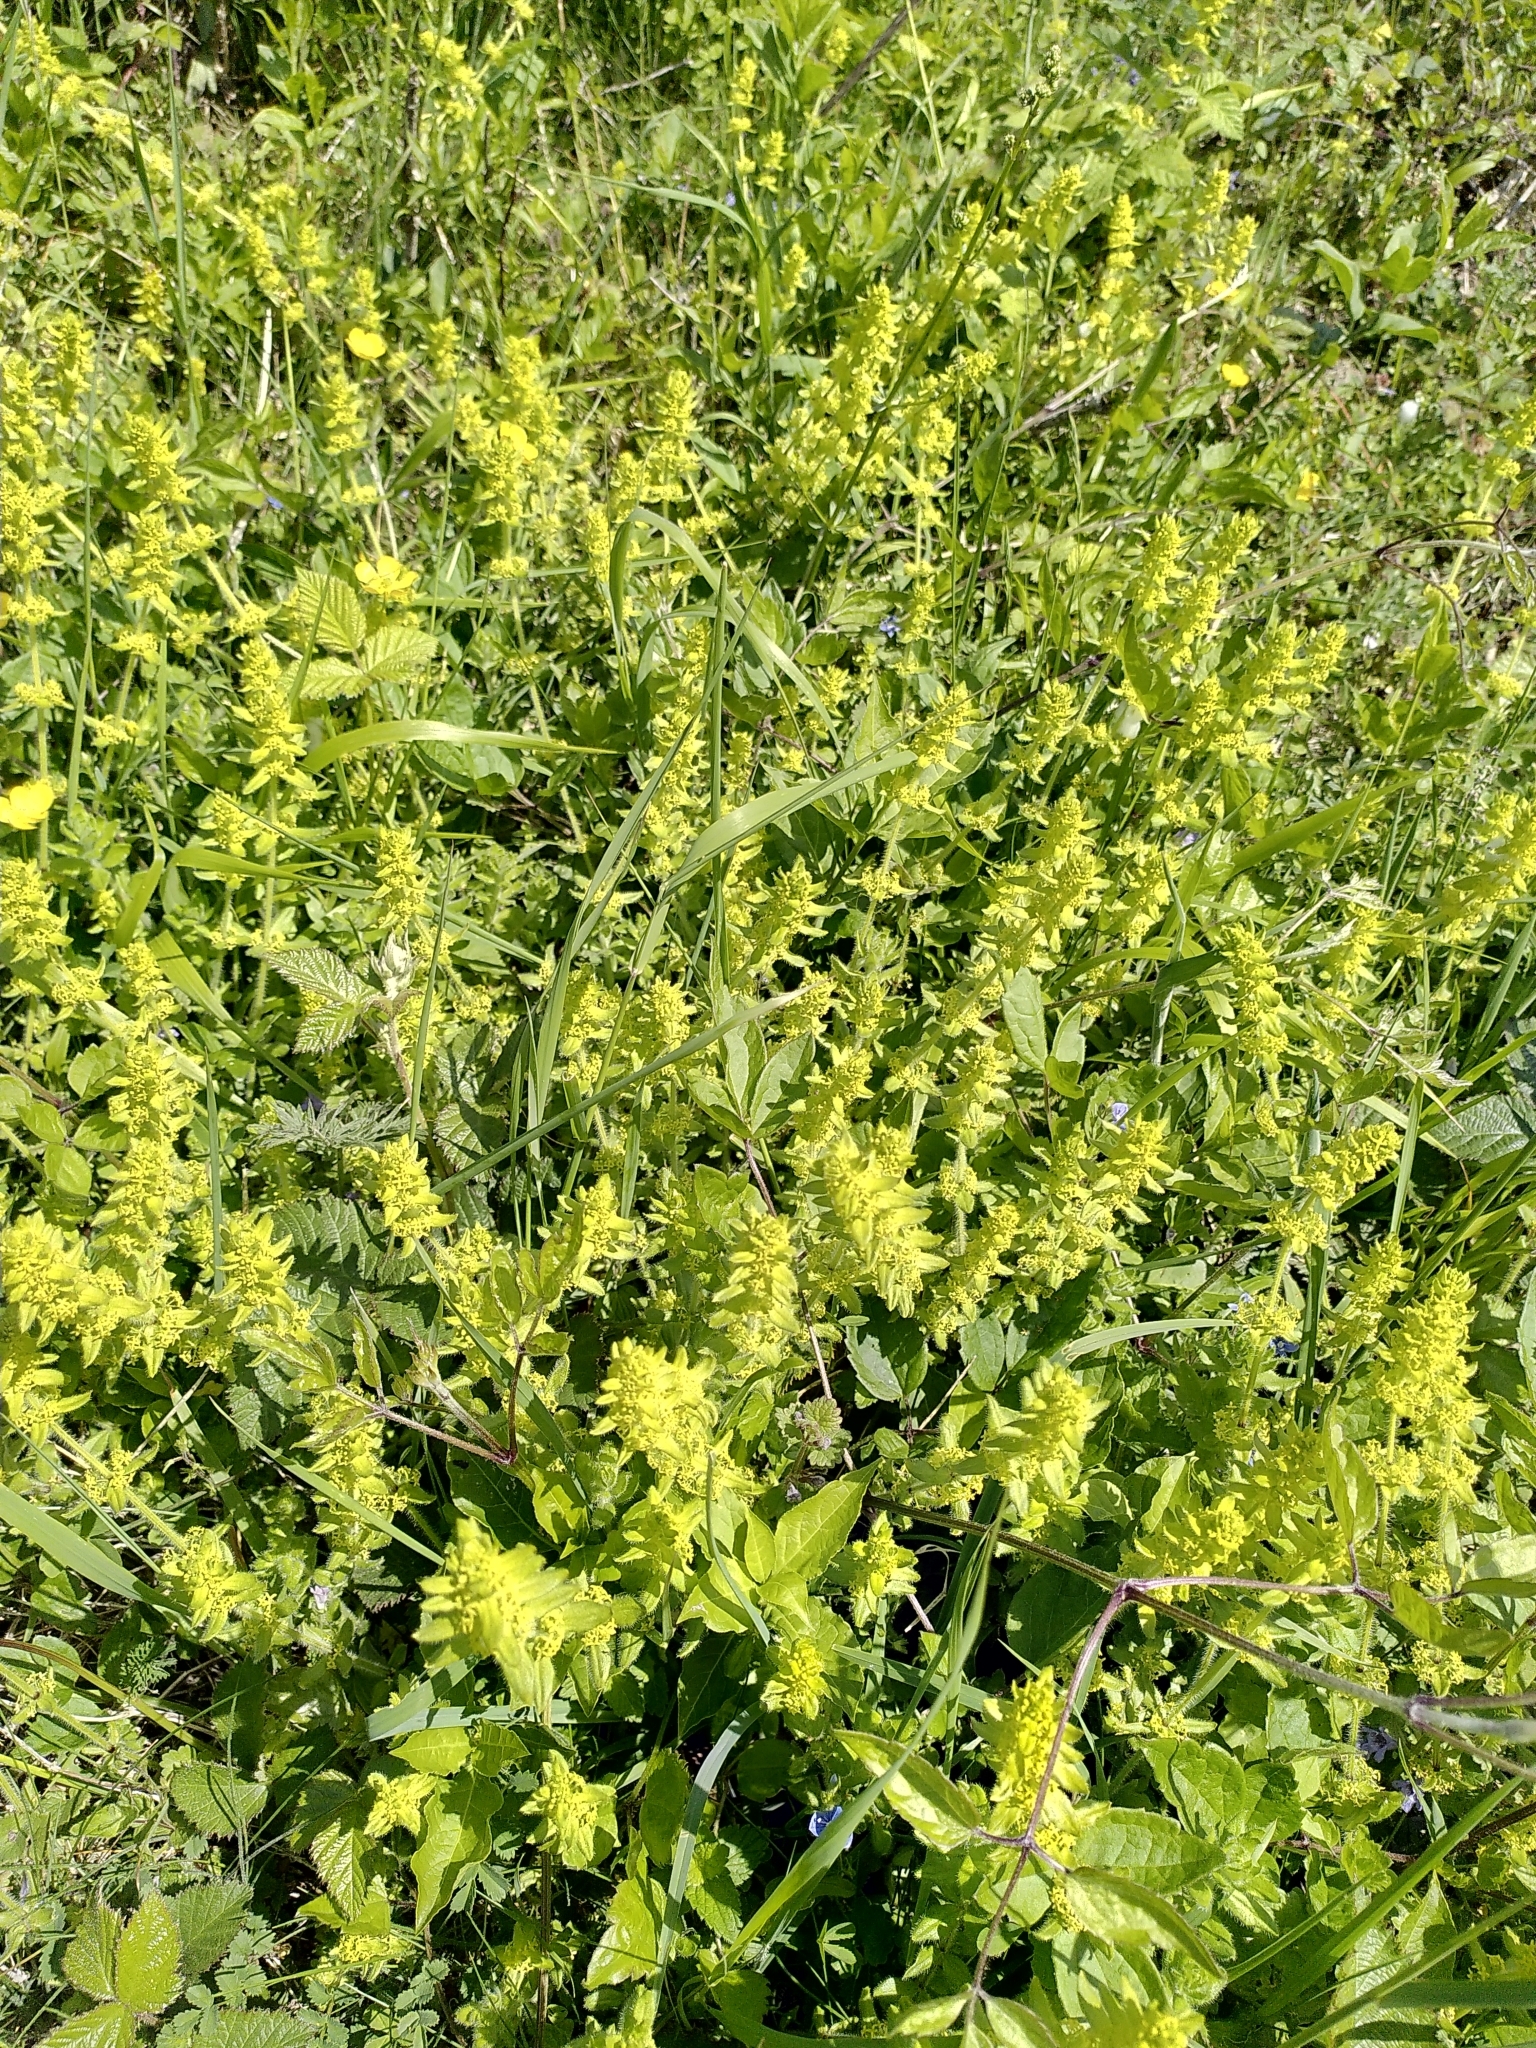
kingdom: Plantae
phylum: Tracheophyta
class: Magnoliopsida
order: Gentianales
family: Rubiaceae
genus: Cruciata
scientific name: Cruciata laevipes
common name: Crosswort
